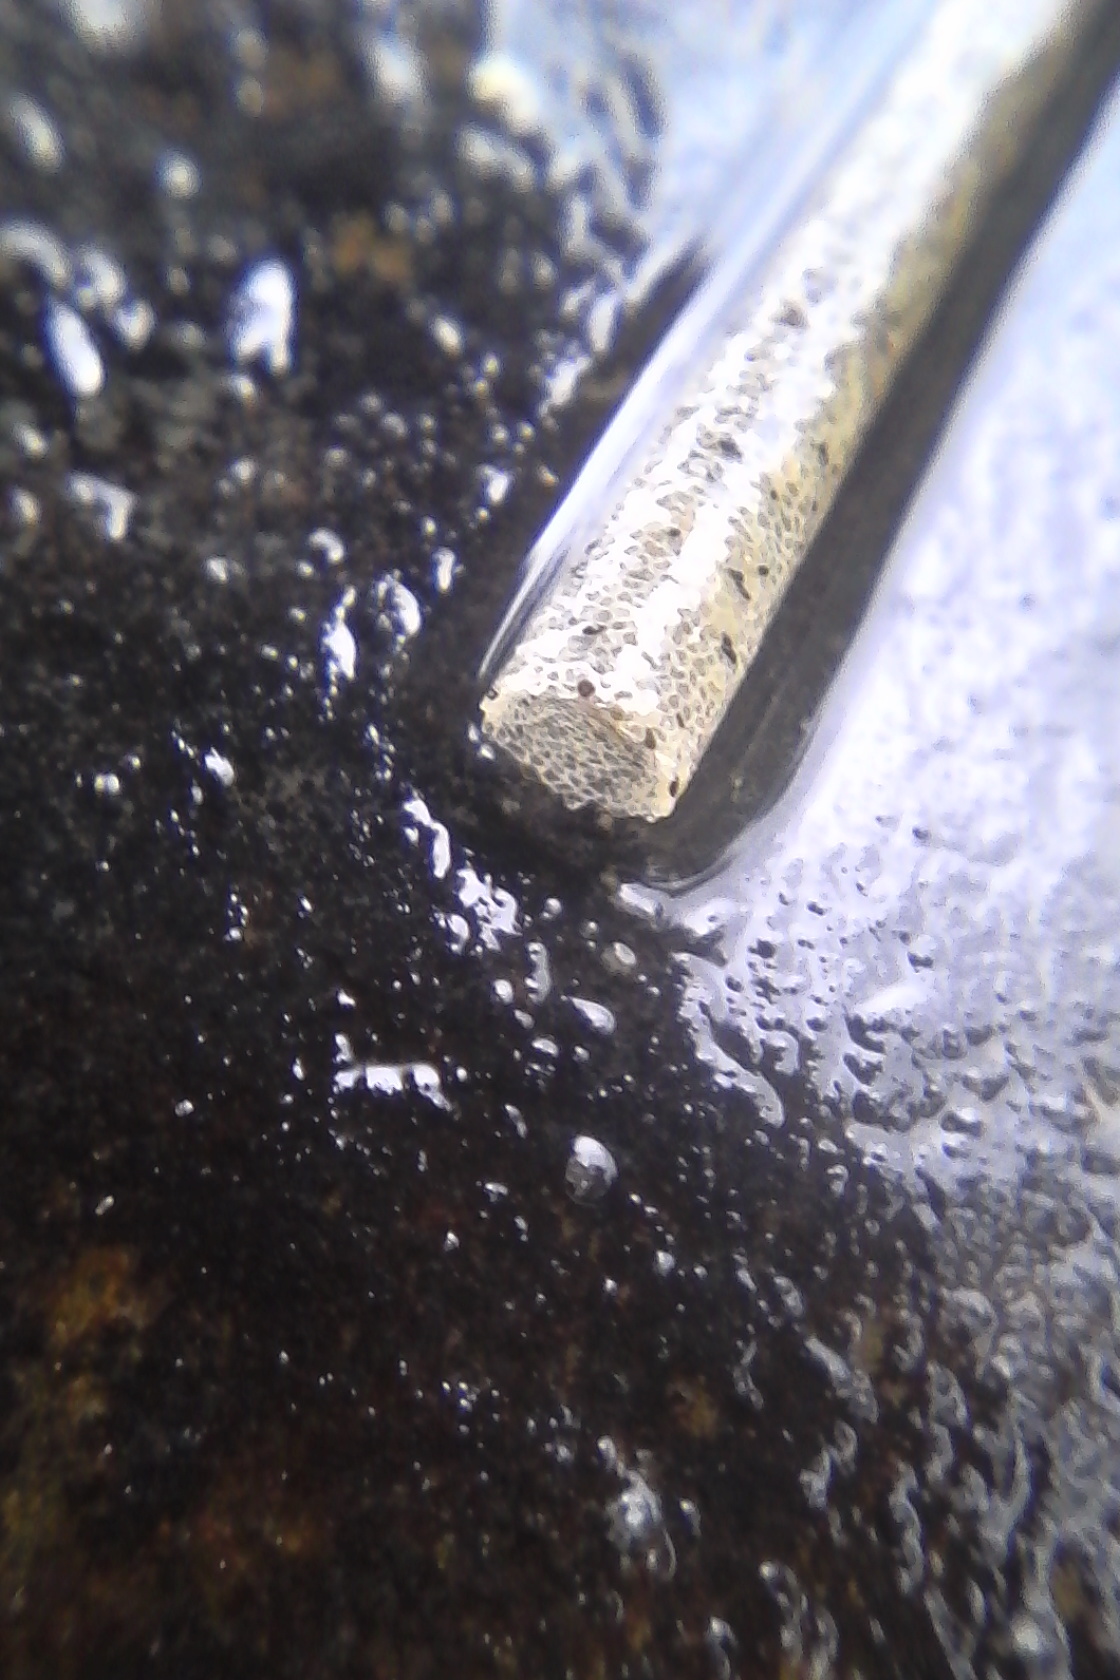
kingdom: Animalia
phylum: Annelida
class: Polychaeta
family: Pectinariidae
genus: Lagis
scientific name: Lagis australis
